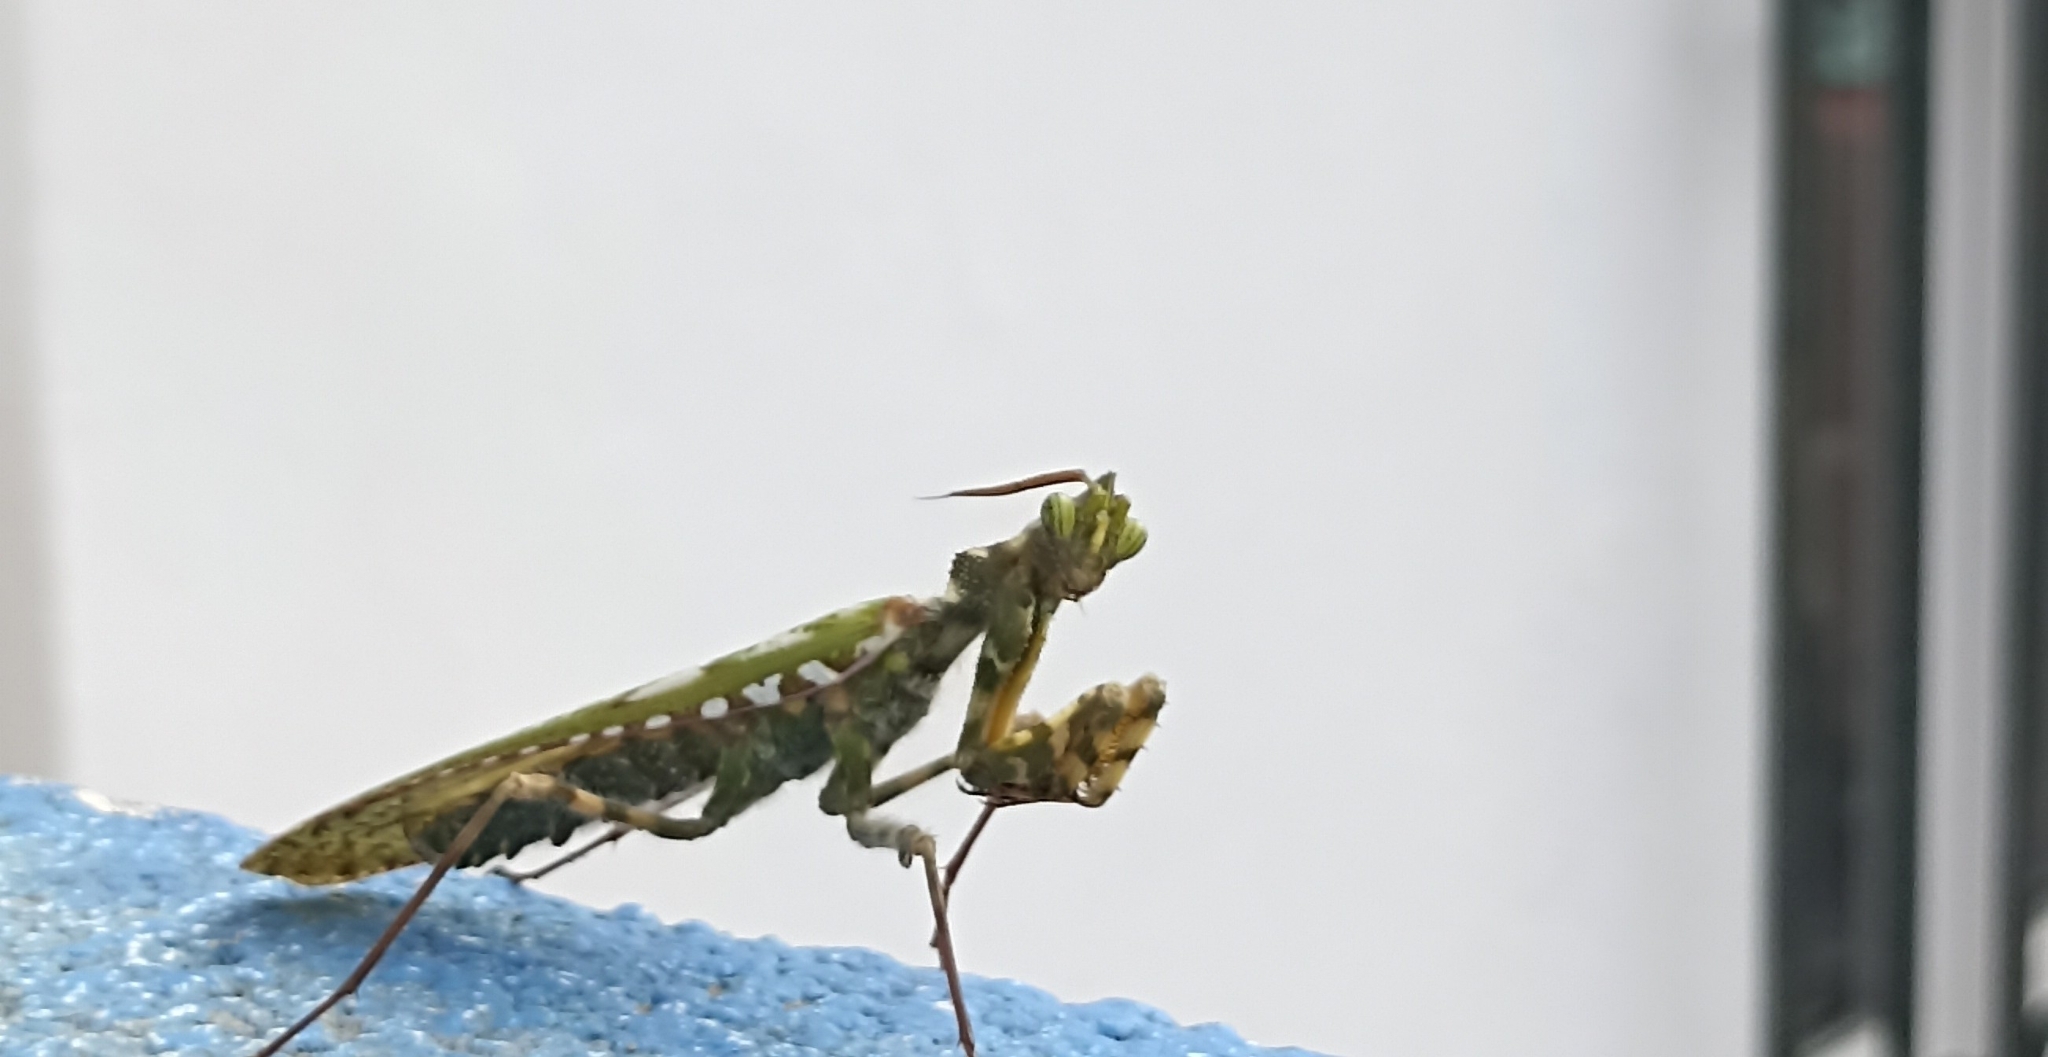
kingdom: Animalia
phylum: Arthropoda
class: Insecta
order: Mantodea
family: Empusidae
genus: Blepharopsis
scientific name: Blepharopsis mendica
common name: Devil's flower mantis
